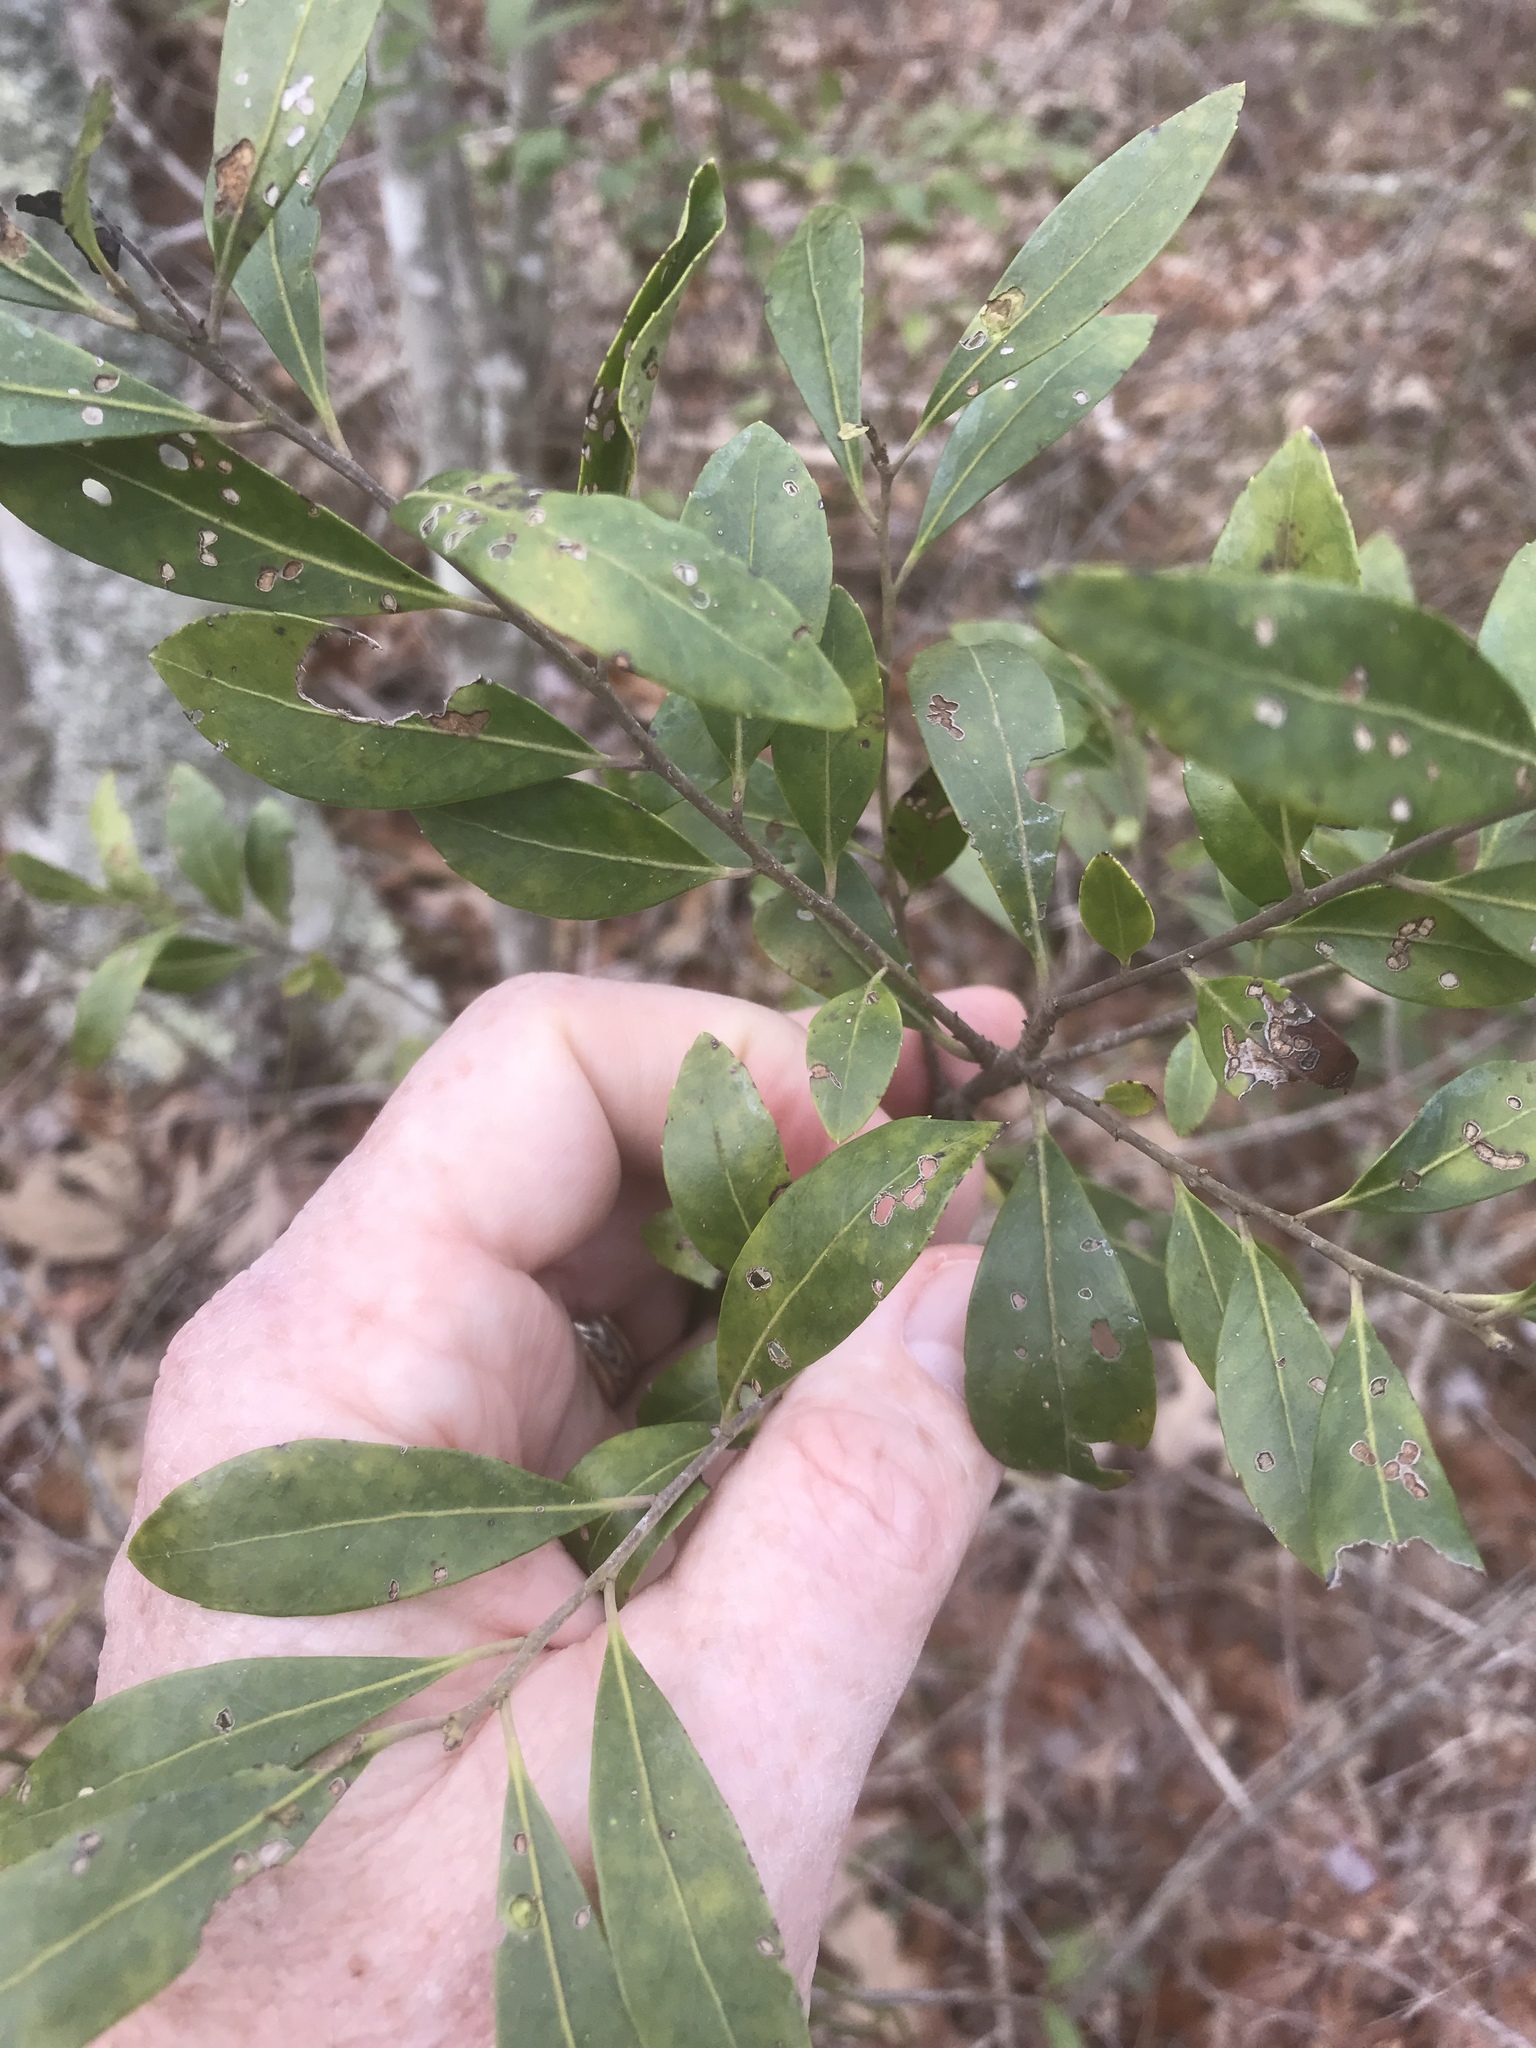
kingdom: Plantae
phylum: Tracheophyta
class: Magnoliopsida
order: Aquifoliales
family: Aquifoliaceae
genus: Ilex
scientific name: Ilex glabra
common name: Bitter gallberry
